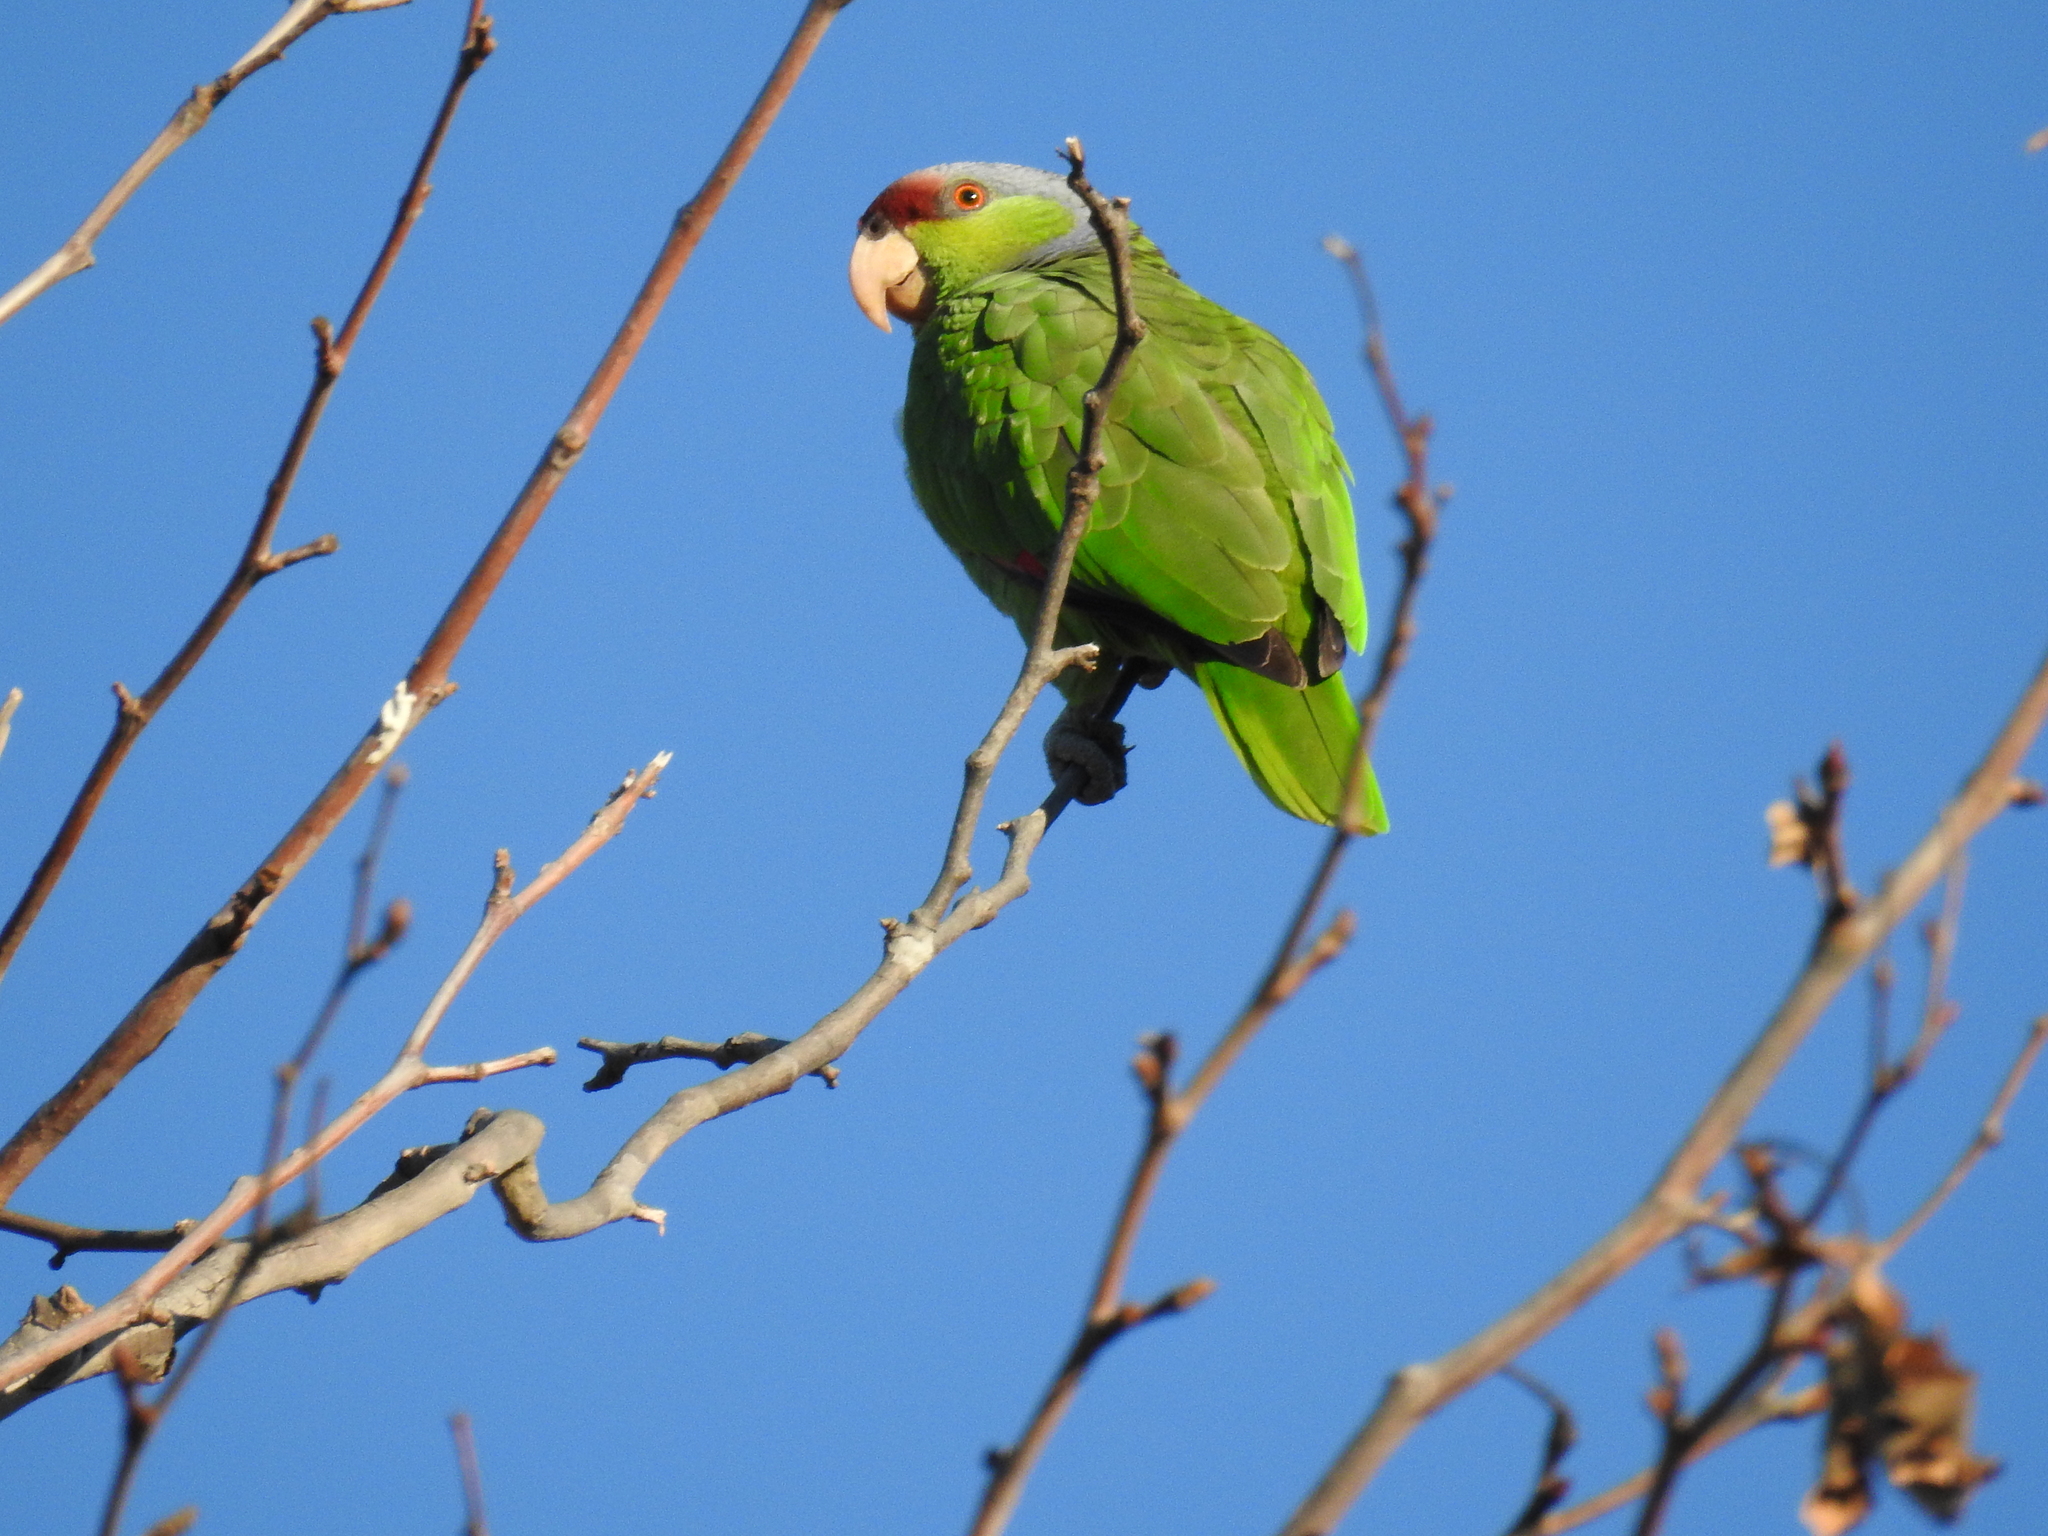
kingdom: Animalia
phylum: Chordata
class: Aves
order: Psittaciformes
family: Psittacidae
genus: Amazona
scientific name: Amazona finschi
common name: Lilac-crowned amazon
